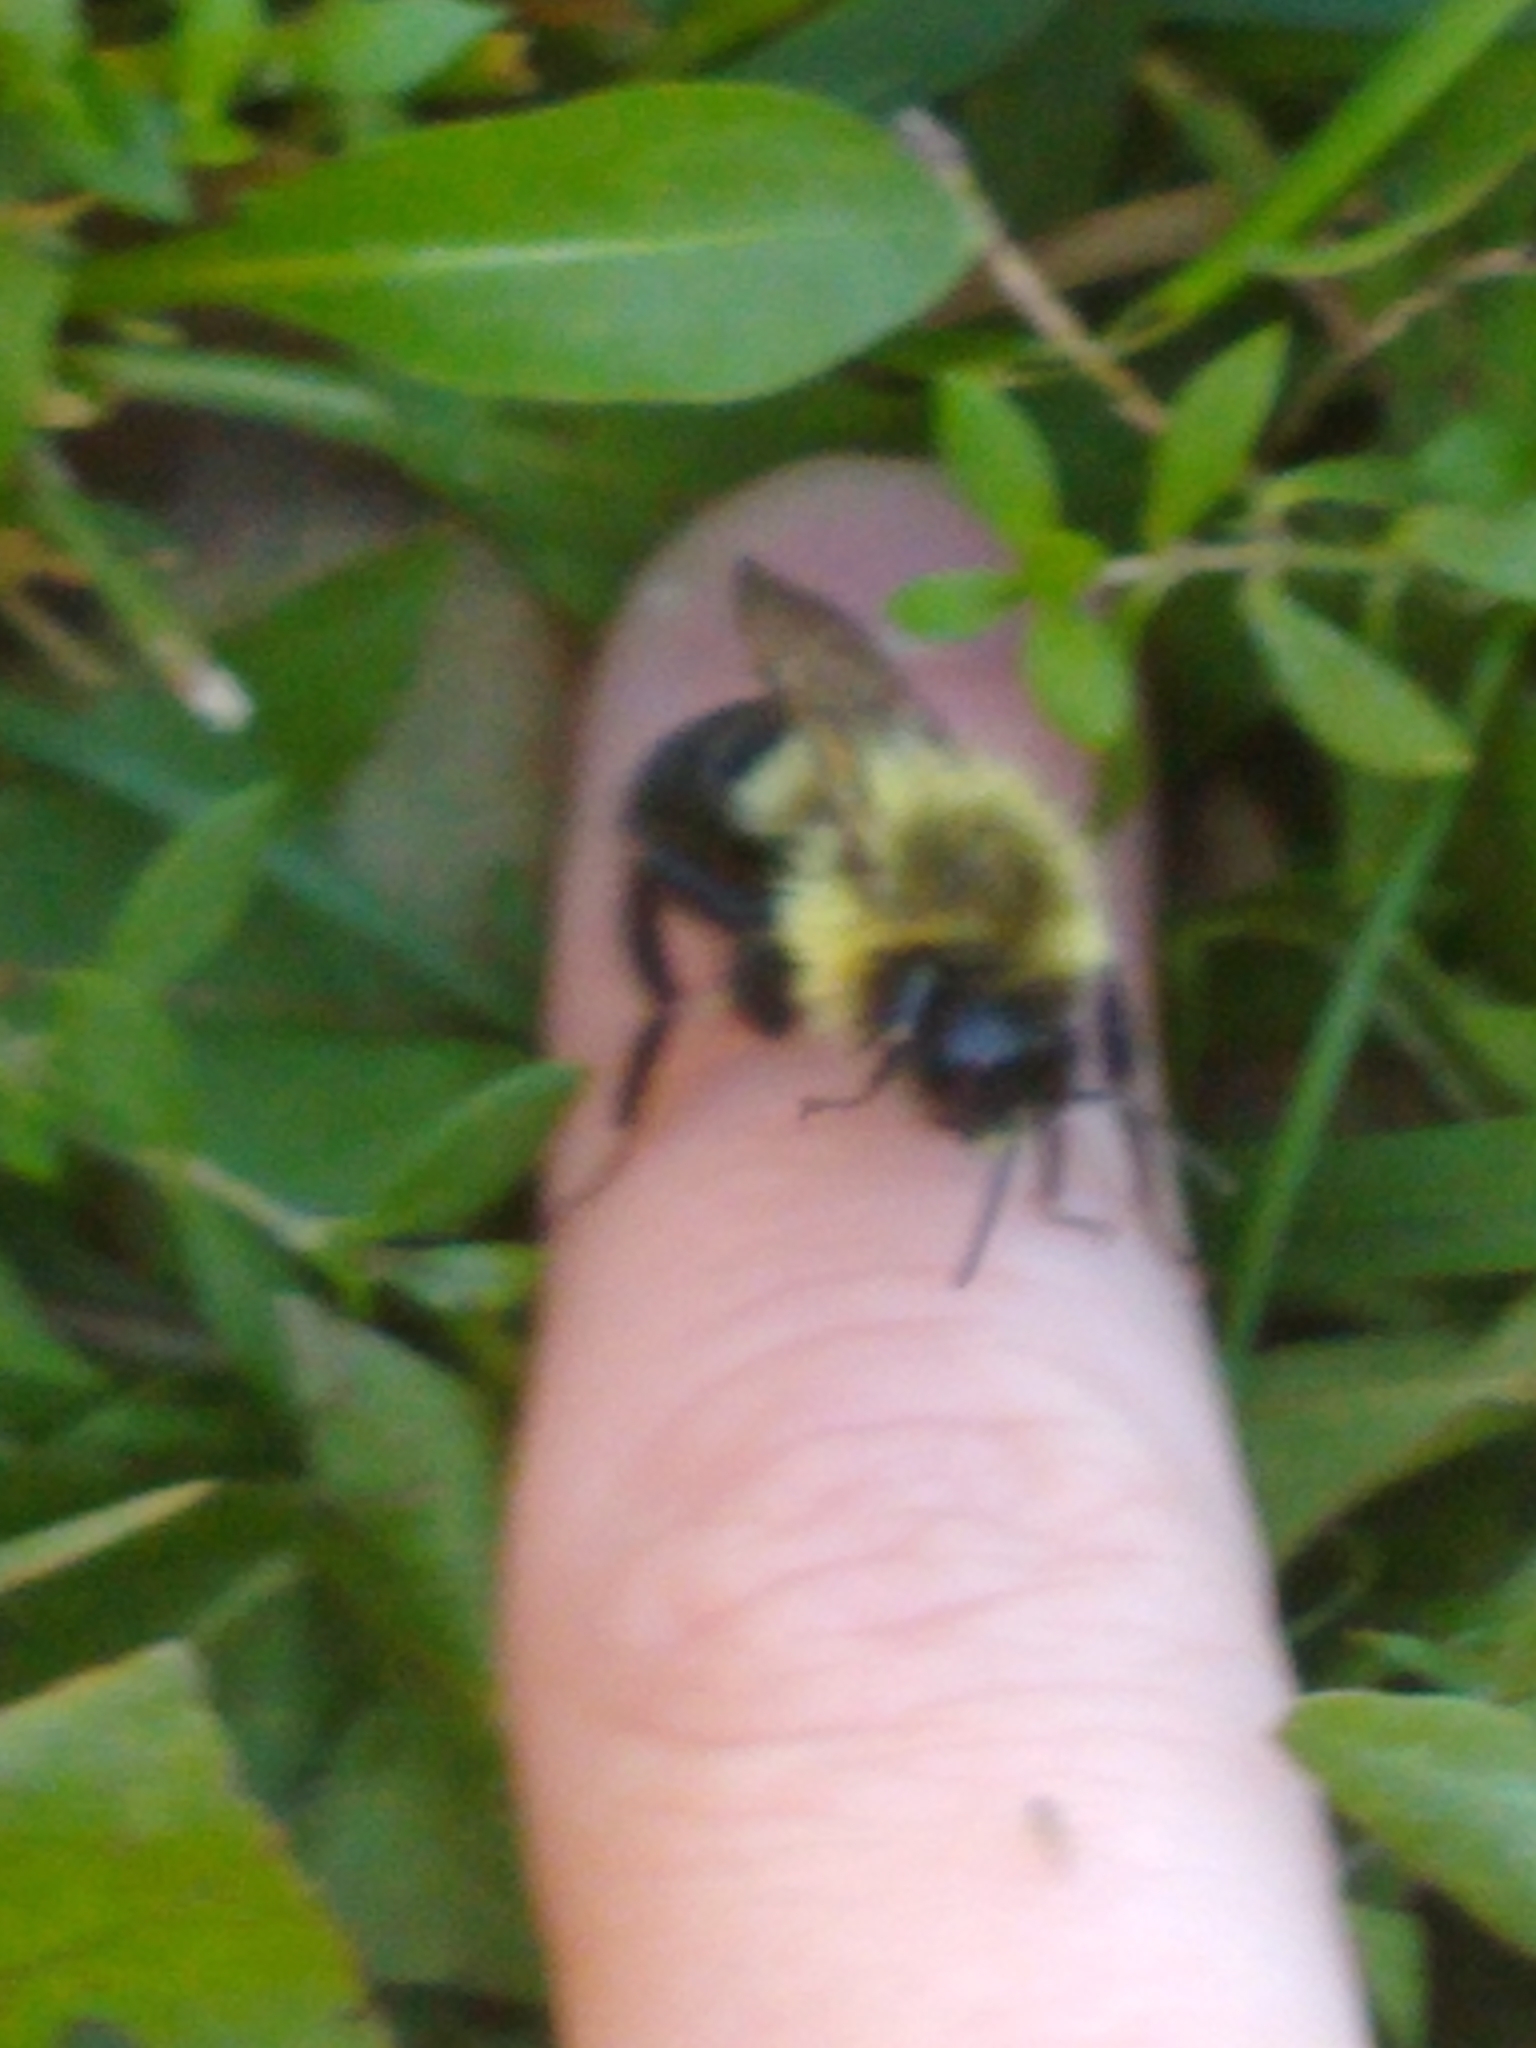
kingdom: Animalia
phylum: Arthropoda
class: Insecta
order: Hymenoptera
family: Apidae
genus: Bombus
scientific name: Bombus impatiens
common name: Common eastern bumble bee
